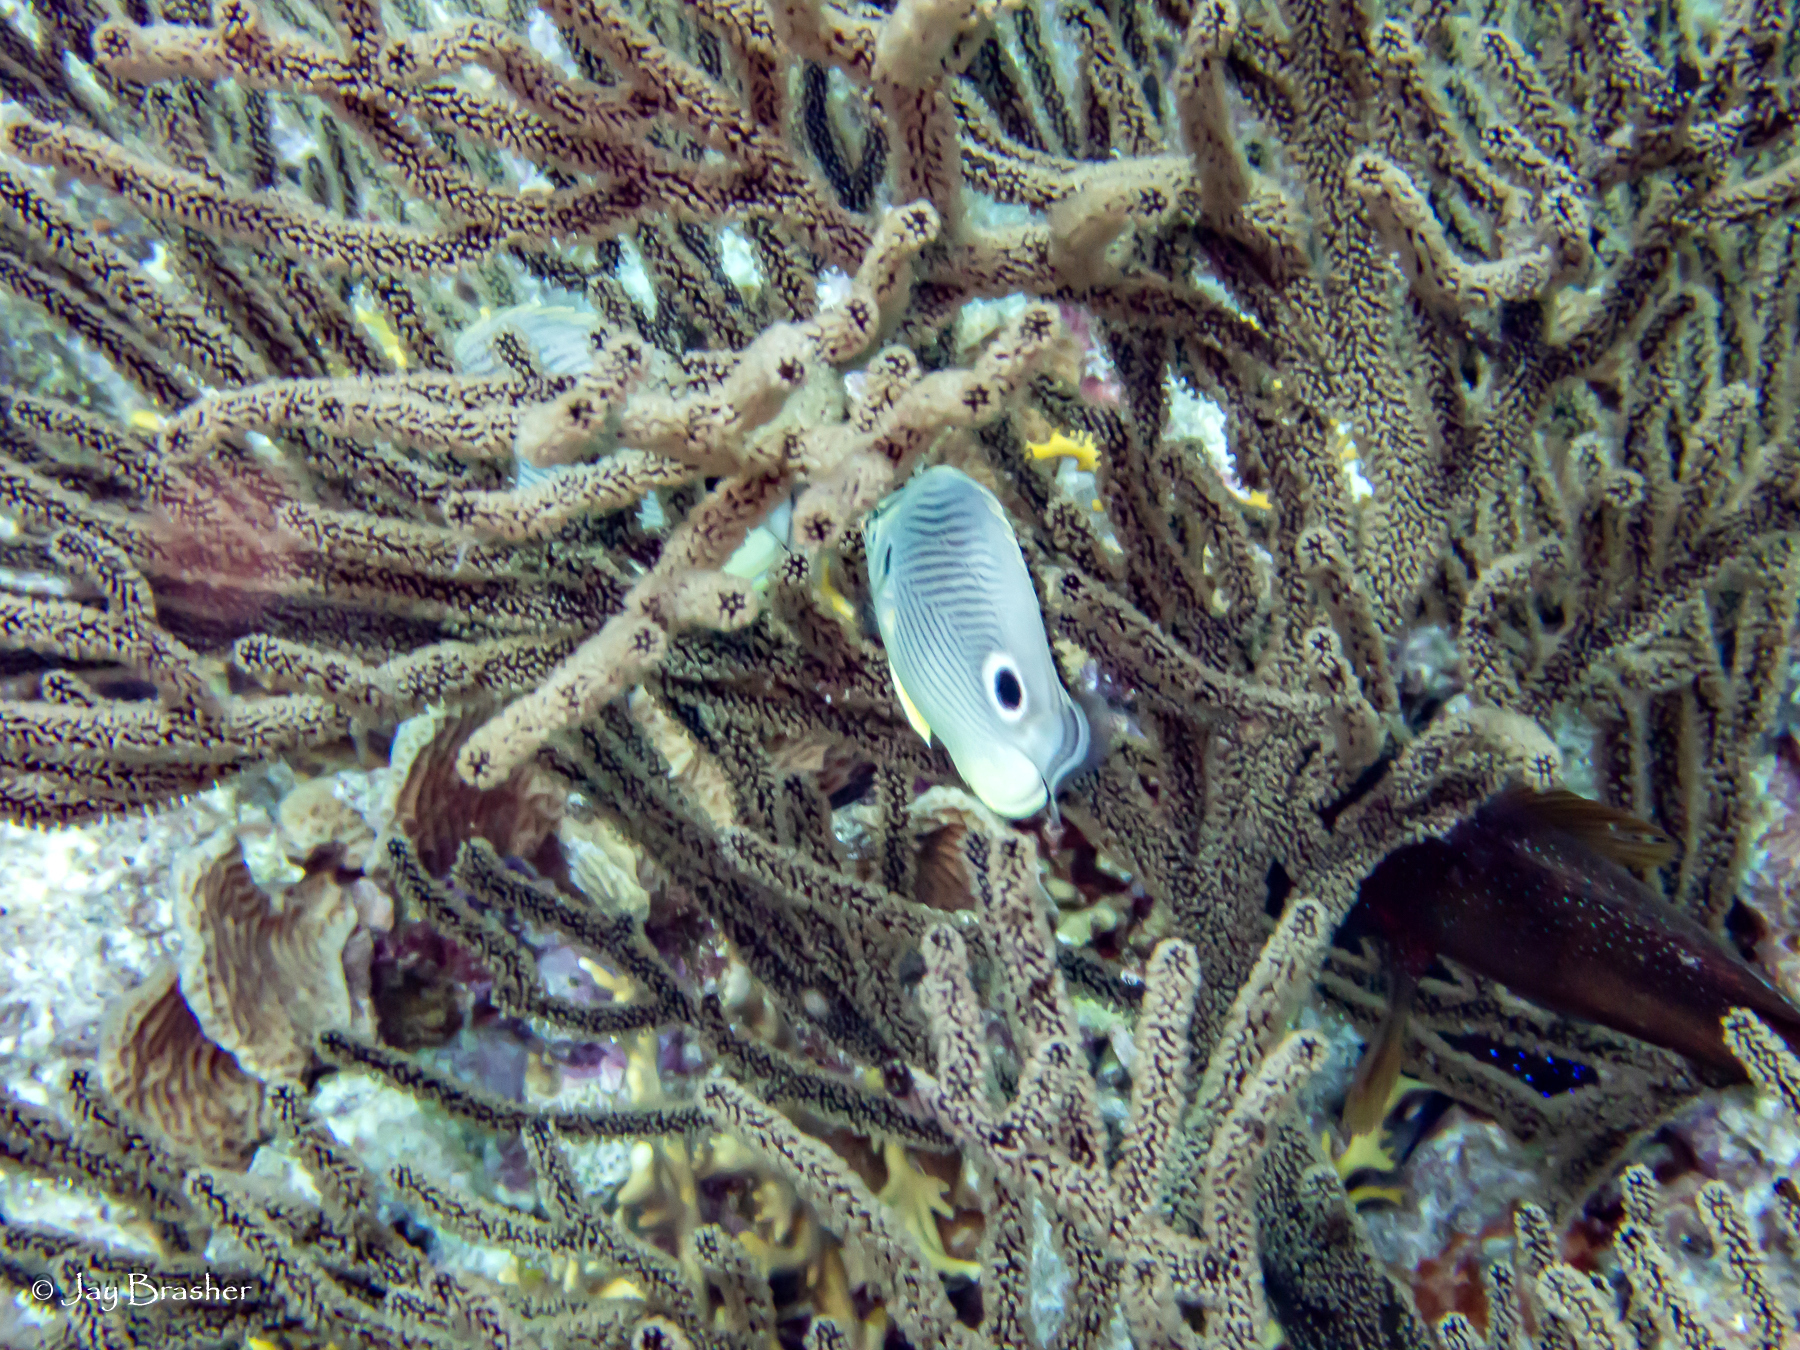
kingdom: Animalia
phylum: Chordata
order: Perciformes
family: Chaetodontidae
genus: Chaetodon
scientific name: Chaetodon capistratus
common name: Kete
